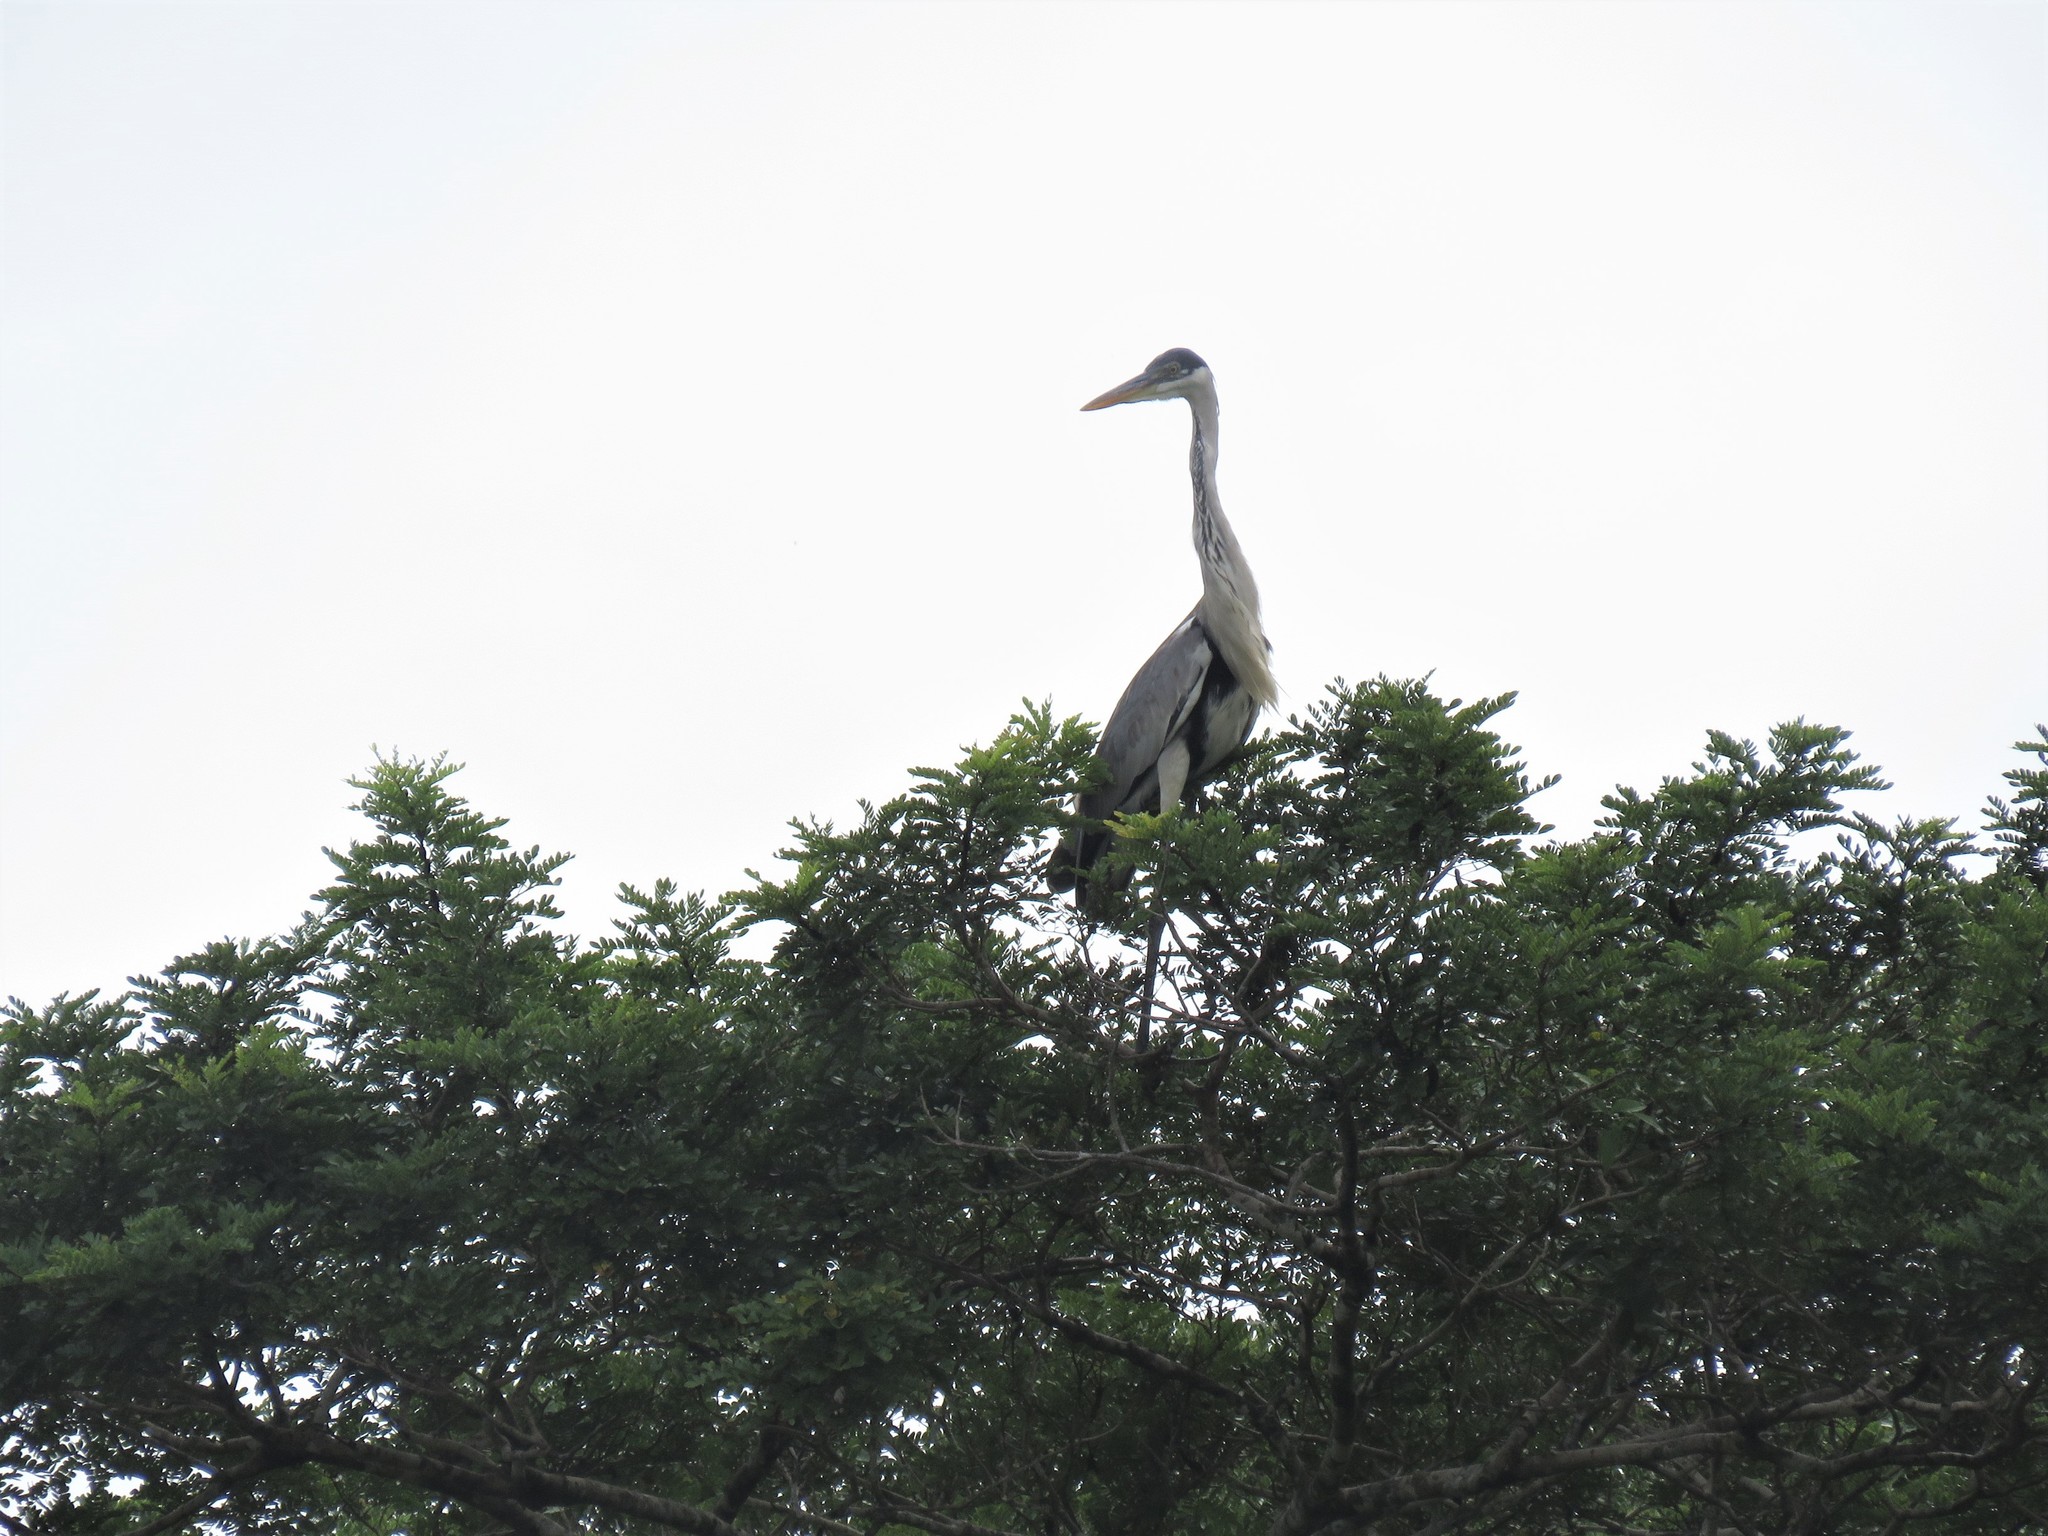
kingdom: Animalia
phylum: Chordata
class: Aves
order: Pelecaniformes
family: Ardeidae
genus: Ardea
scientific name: Ardea cocoi
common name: Cocoi heron
